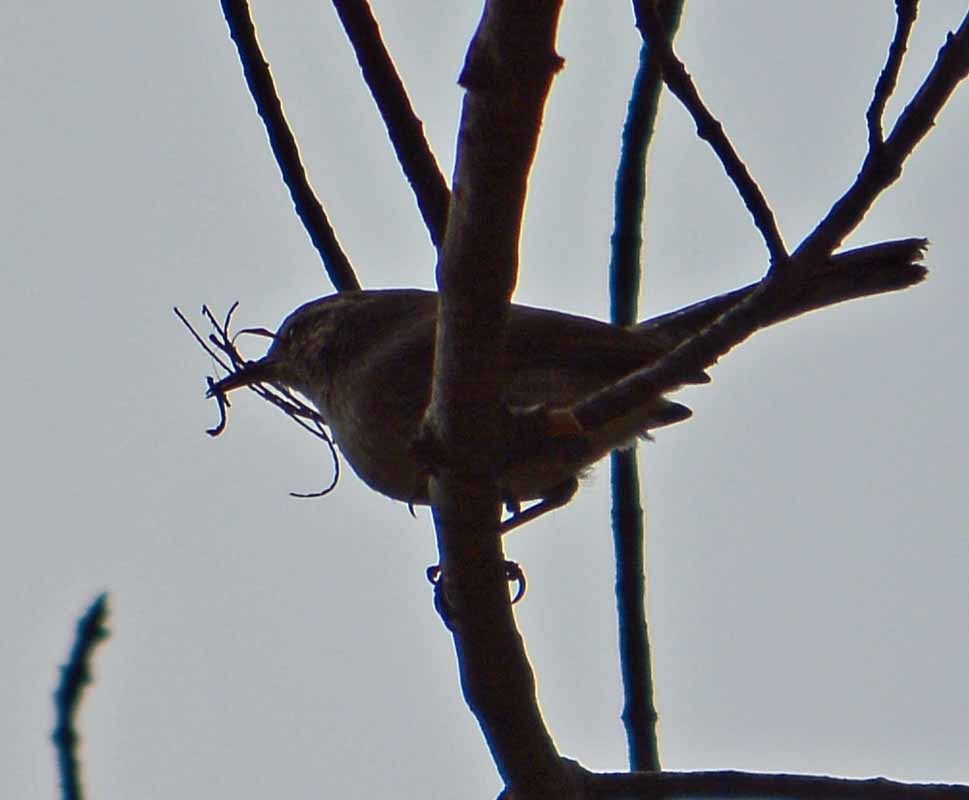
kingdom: Animalia
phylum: Chordata
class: Aves
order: Passeriformes
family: Troglodytidae
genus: Thryomanes
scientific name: Thryomanes bewickii
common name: Bewick's wren
